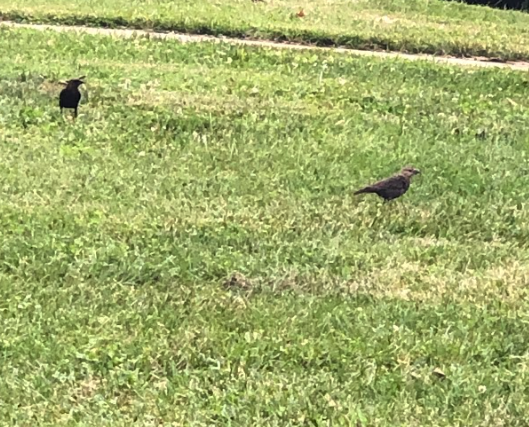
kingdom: Animalia
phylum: Chordata
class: Aves
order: Passeriformes
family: Icteridae
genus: Molothrus
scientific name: Molothrus ater
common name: Brown-headed cowbird
